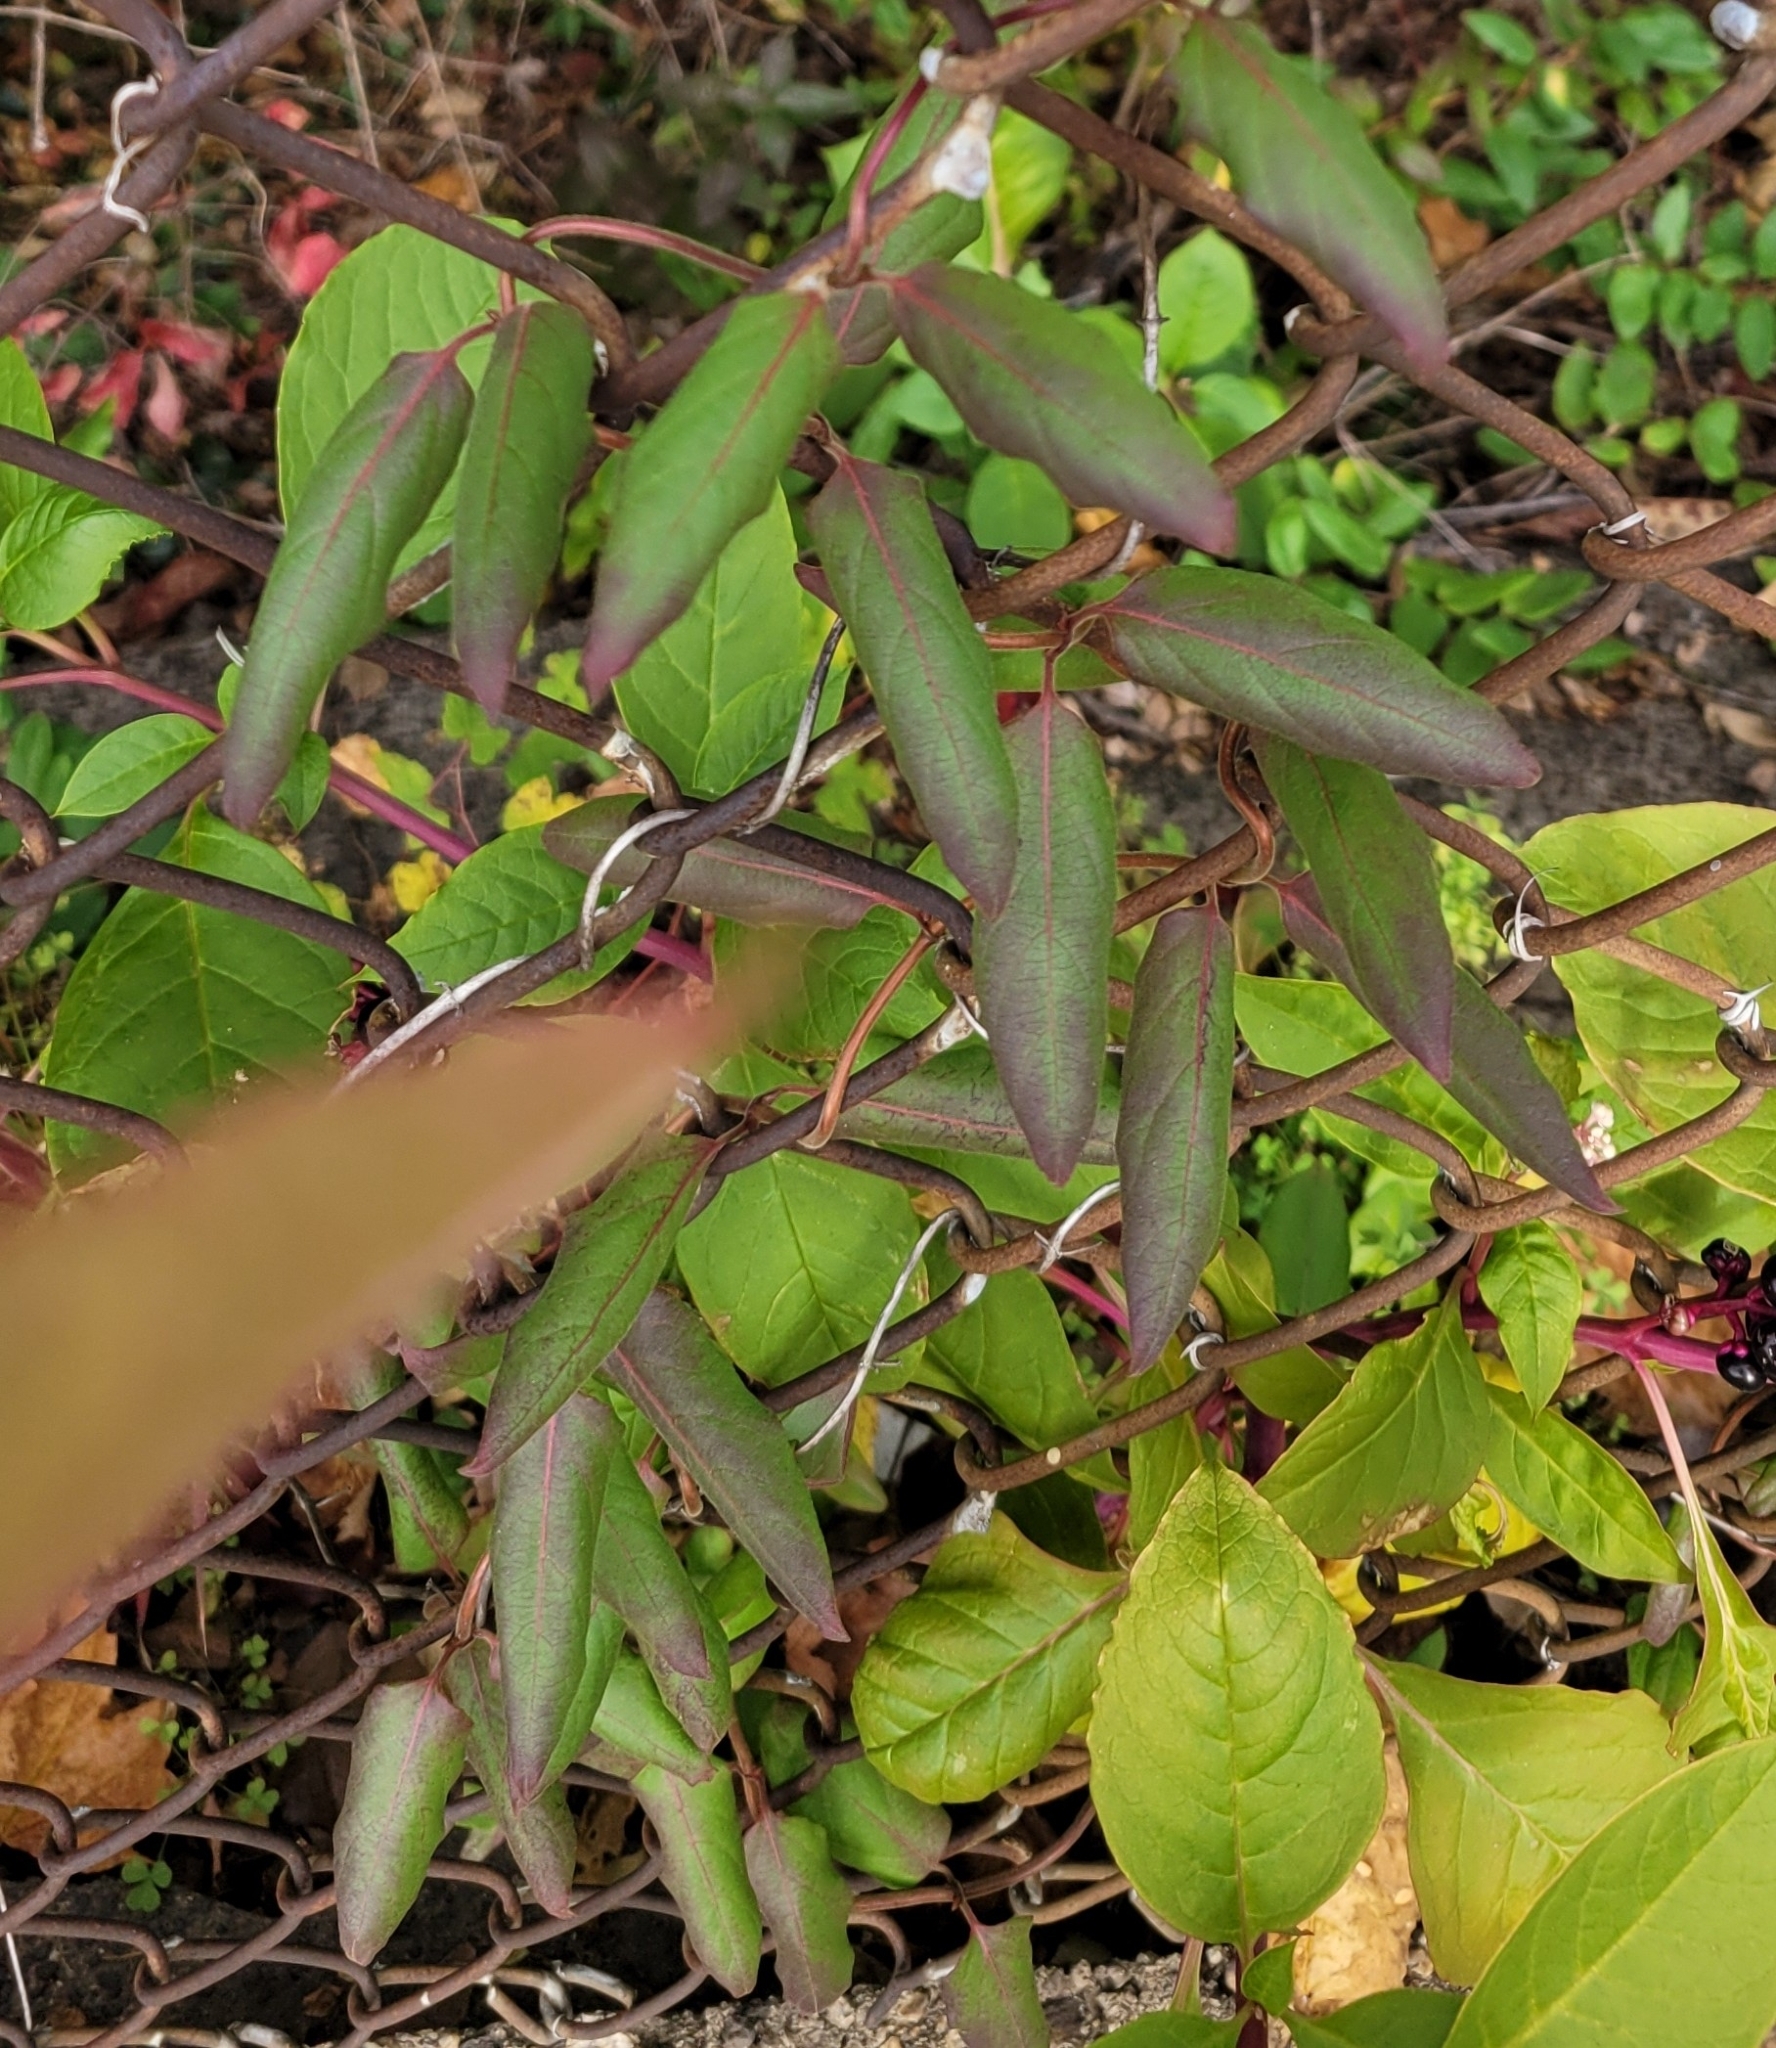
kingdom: Plantae
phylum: Tracheophyta
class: Magnoliopsida
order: Dipsacales
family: Caprifoliaceae
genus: Lonicera
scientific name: Lonicera japonica
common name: Japanese honeysuckle
